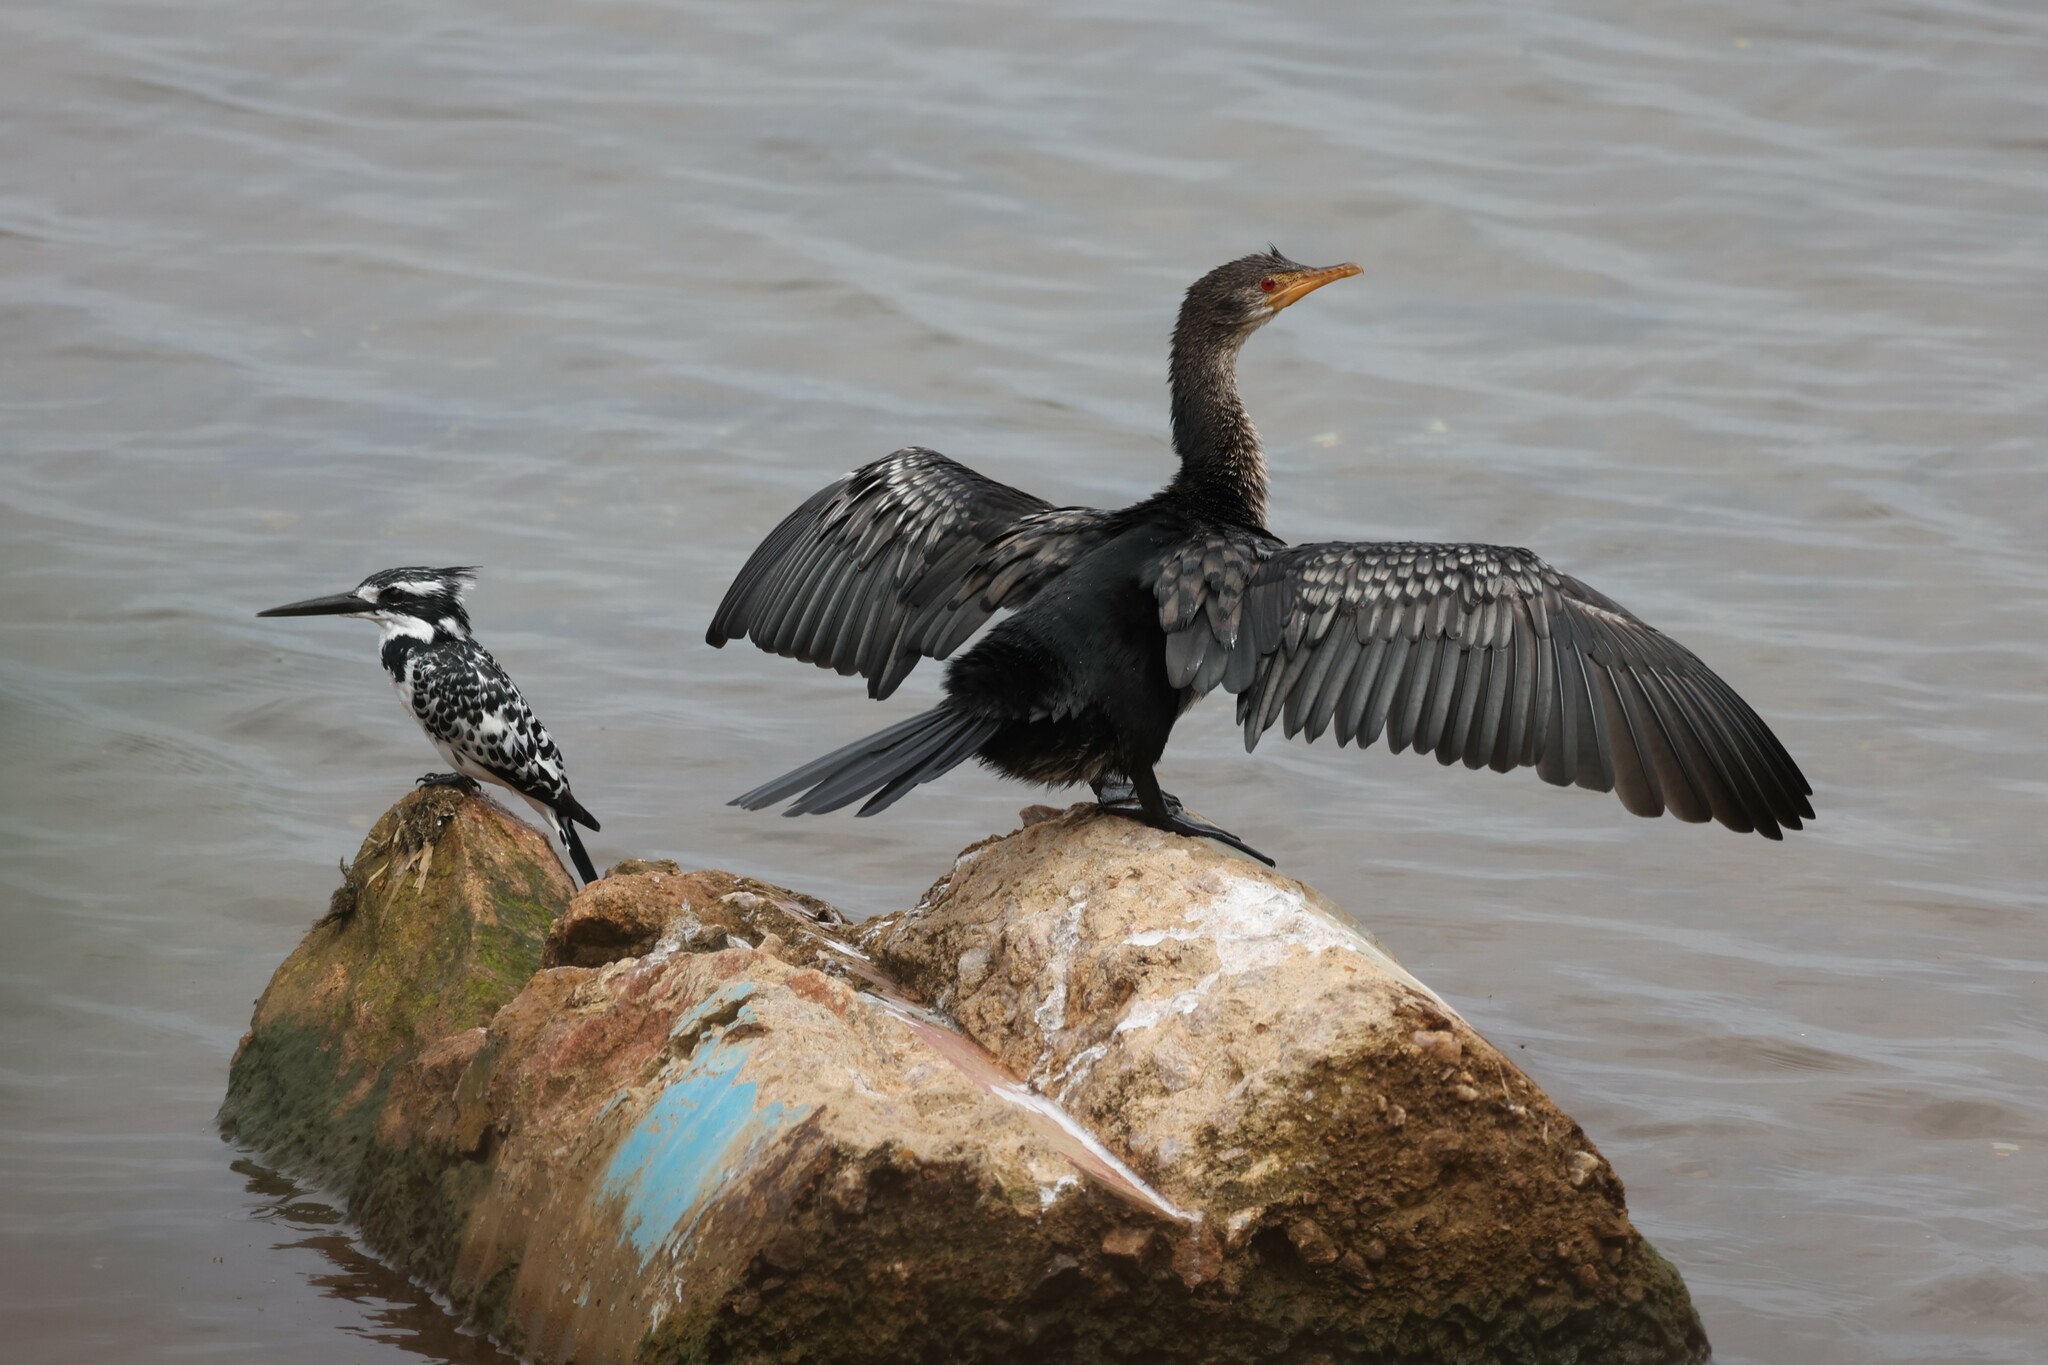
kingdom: Animalia
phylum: Chordata
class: Aves
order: Suliformes
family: Phalacrocoracidae
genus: Microcarbo
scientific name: Microcarbo africanus
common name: Long-tailed cormorant
